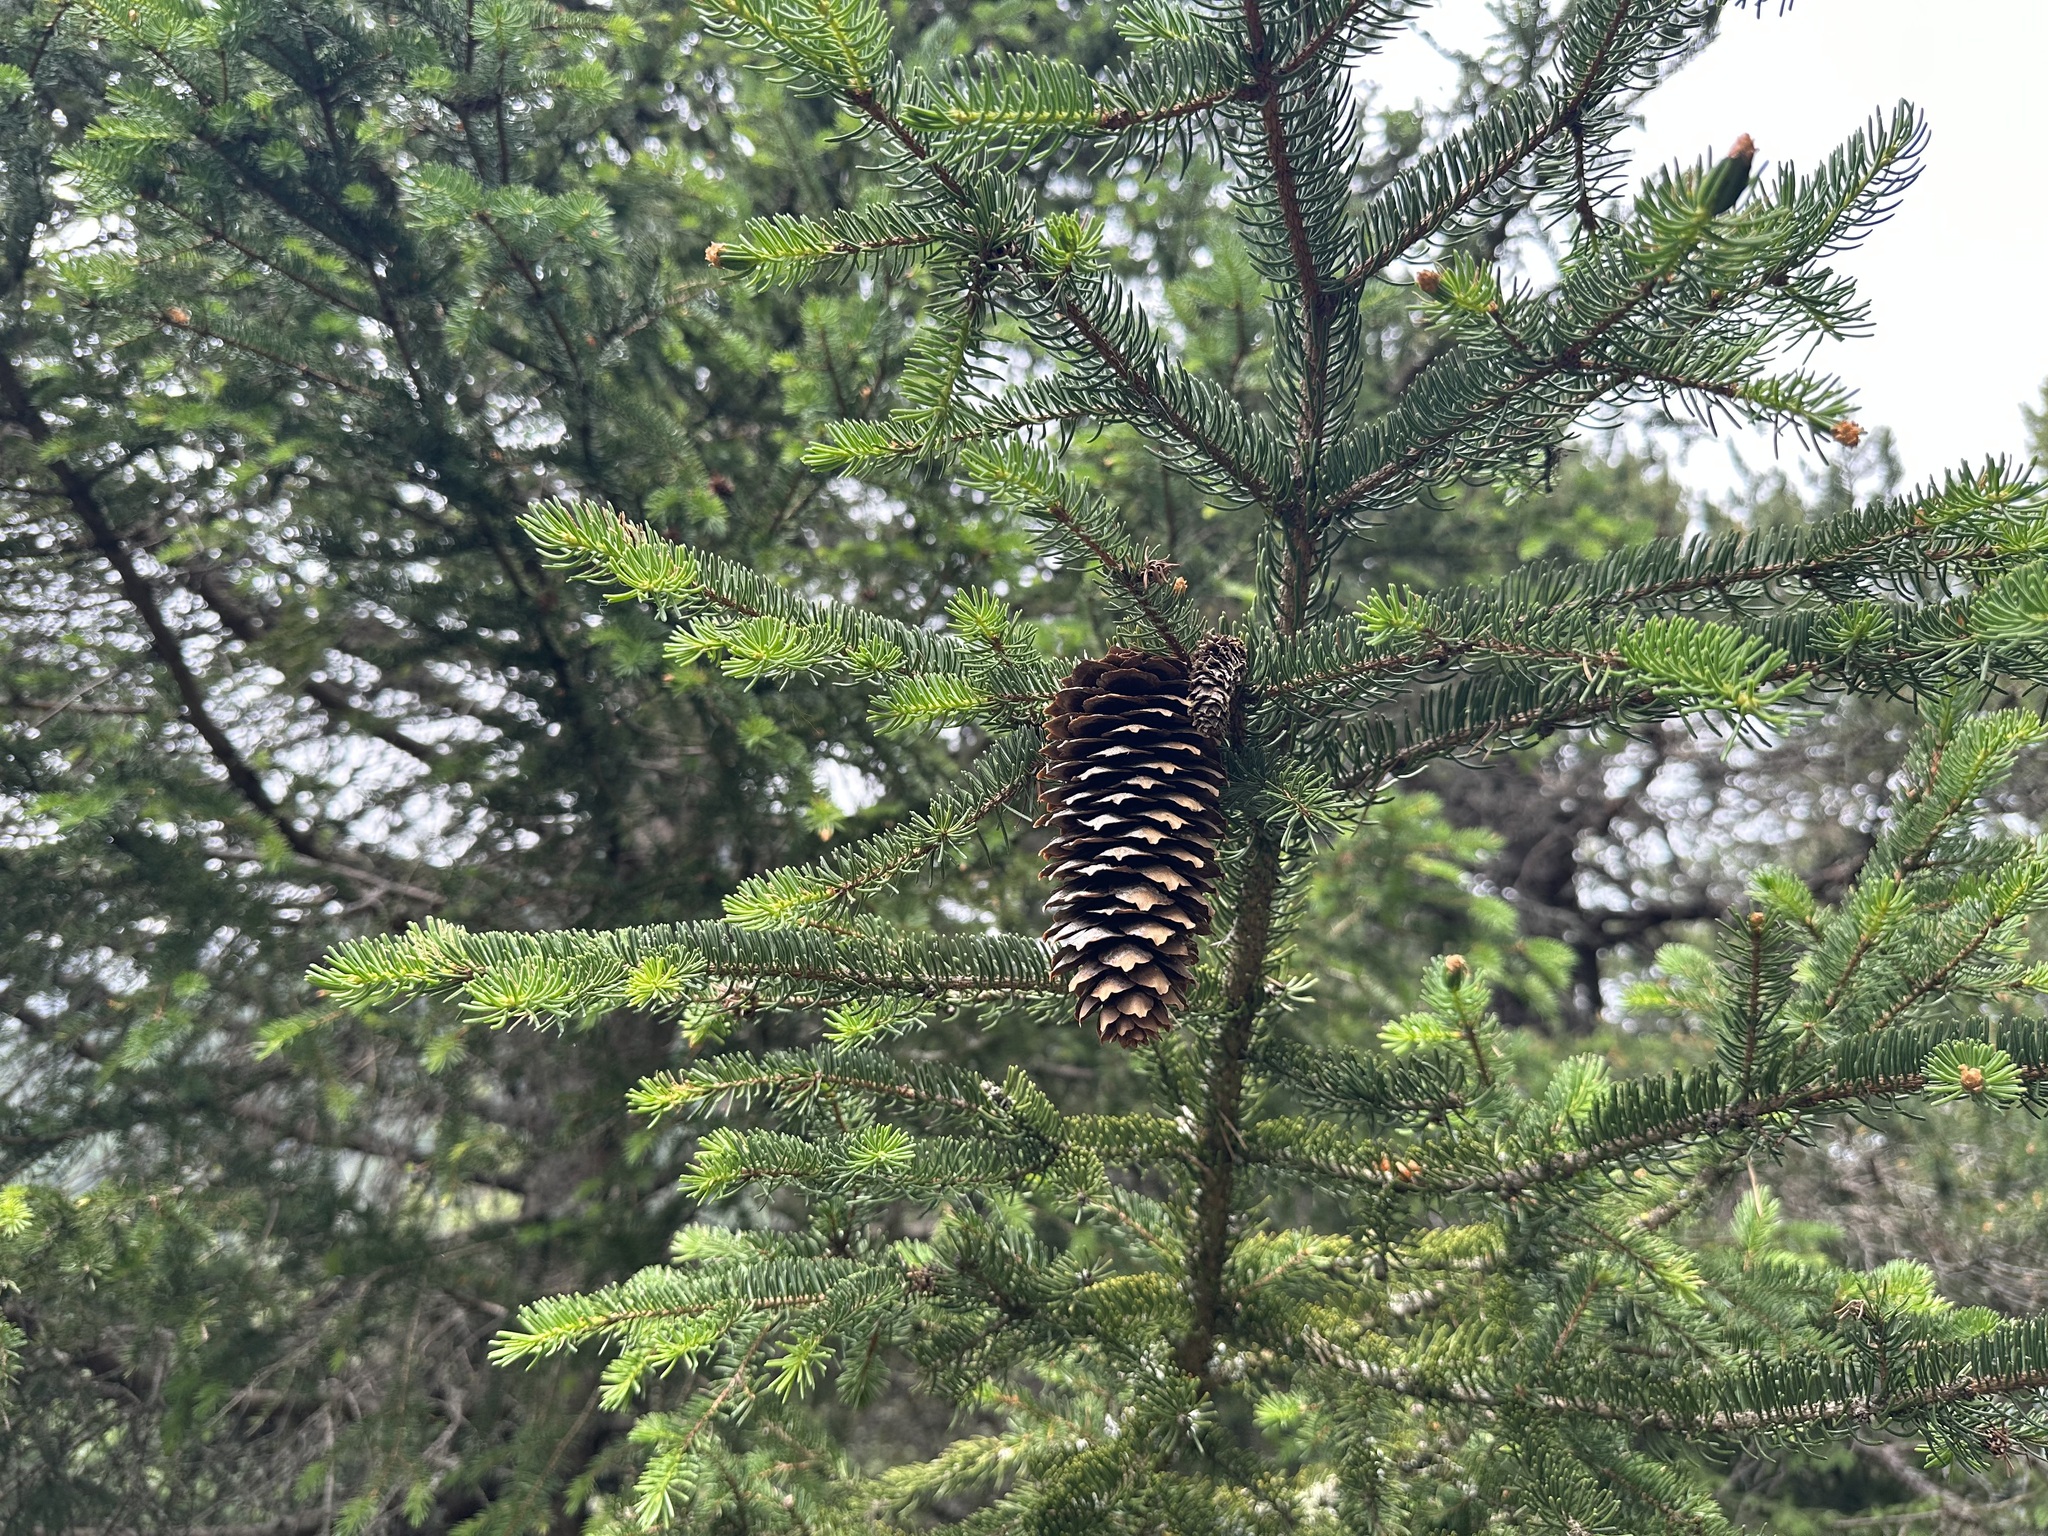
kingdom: Plantae
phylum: Tracheophyta
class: Pinopsida
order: Pinales
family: Pinaceae
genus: Picea
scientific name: Picea abies
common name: Norway spruce
